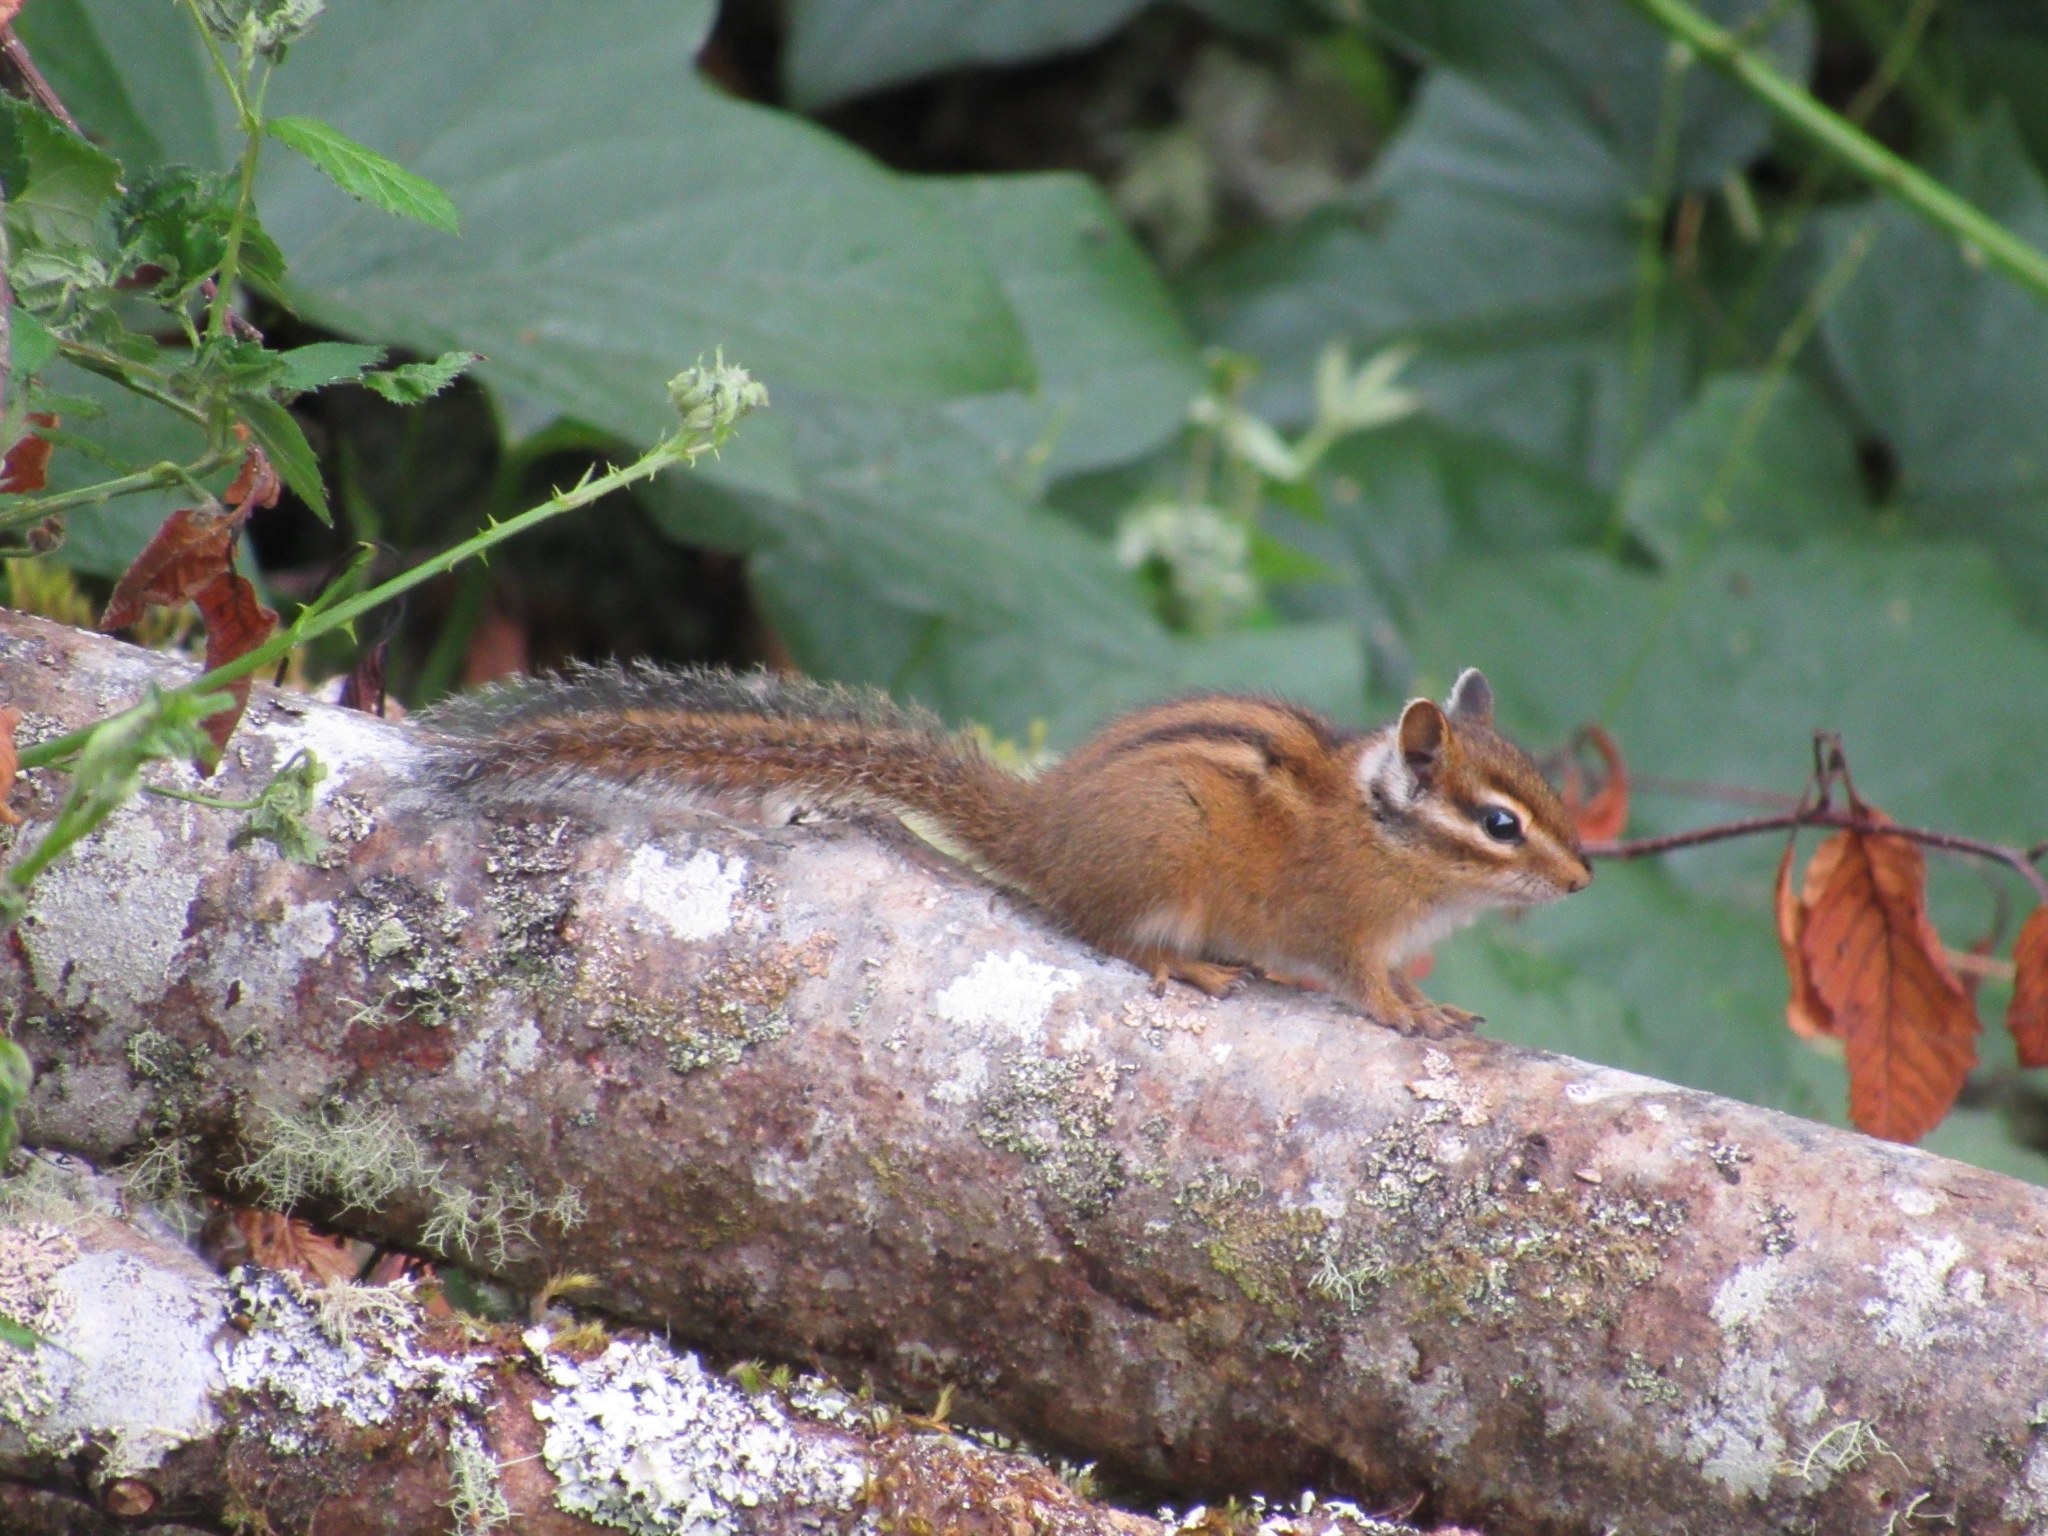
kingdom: Animalia
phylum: Chordata
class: Mammalia
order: Rodentia
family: Sciuridae
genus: Tamias
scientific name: Tamias townsendii
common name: Townsend's chipmunk
